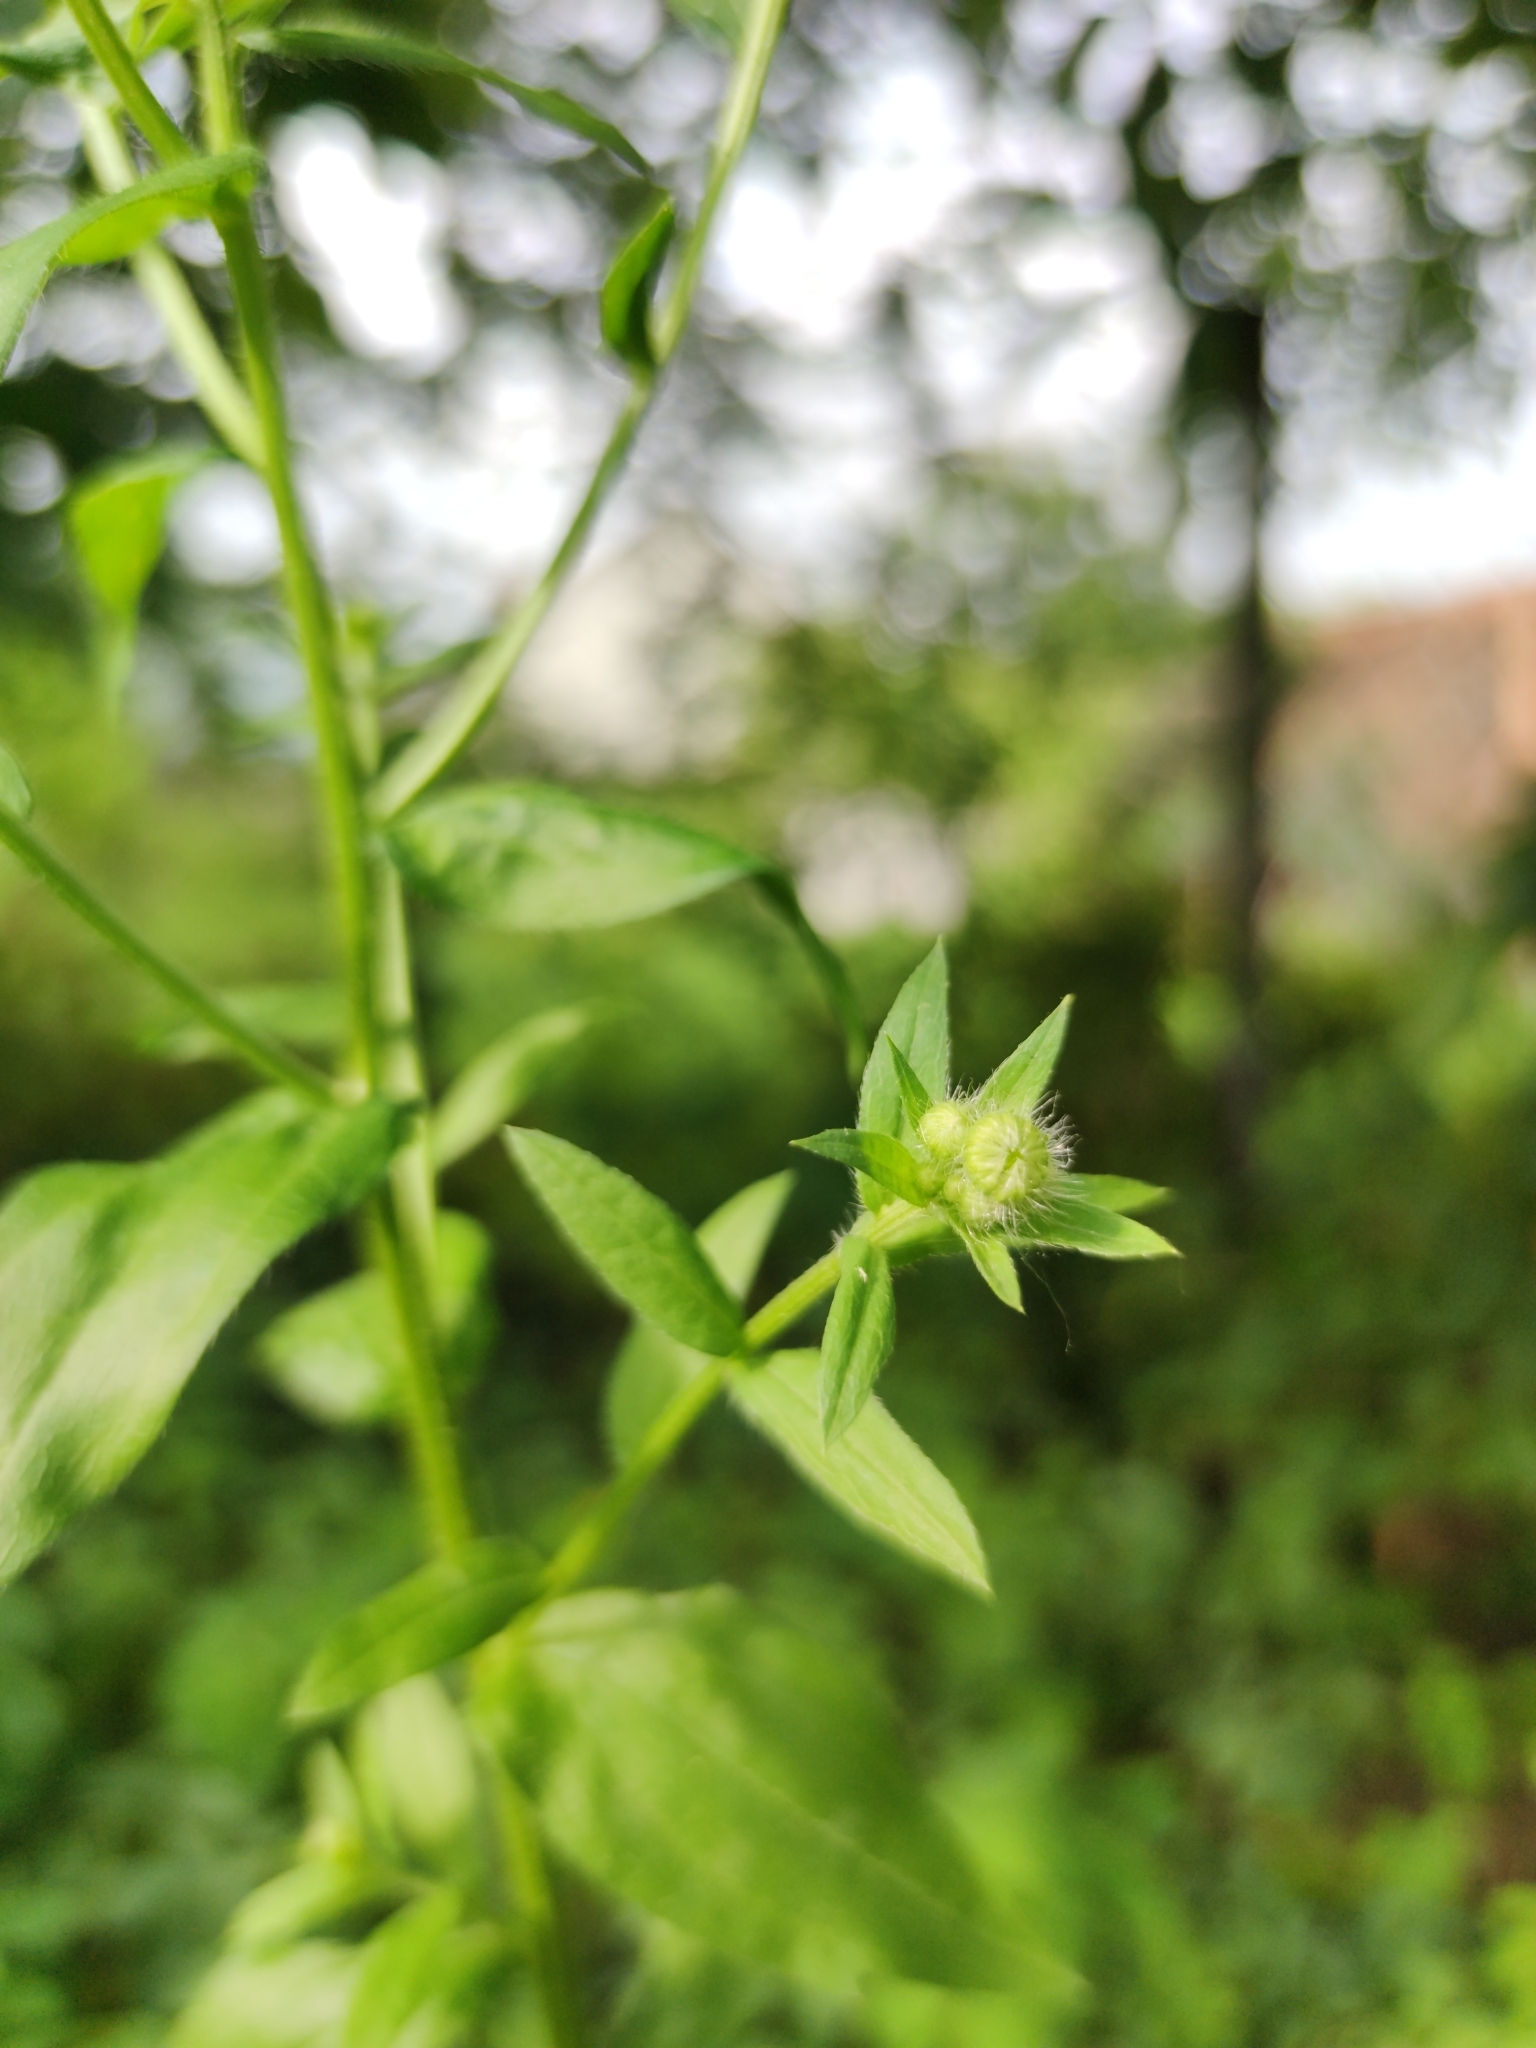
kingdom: Plantae
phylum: Tracheophyta
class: Magnoliopsida
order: Asterales
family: Asteraceae
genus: Erigeron
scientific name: Erigeron annuus
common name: Tall fleabane
